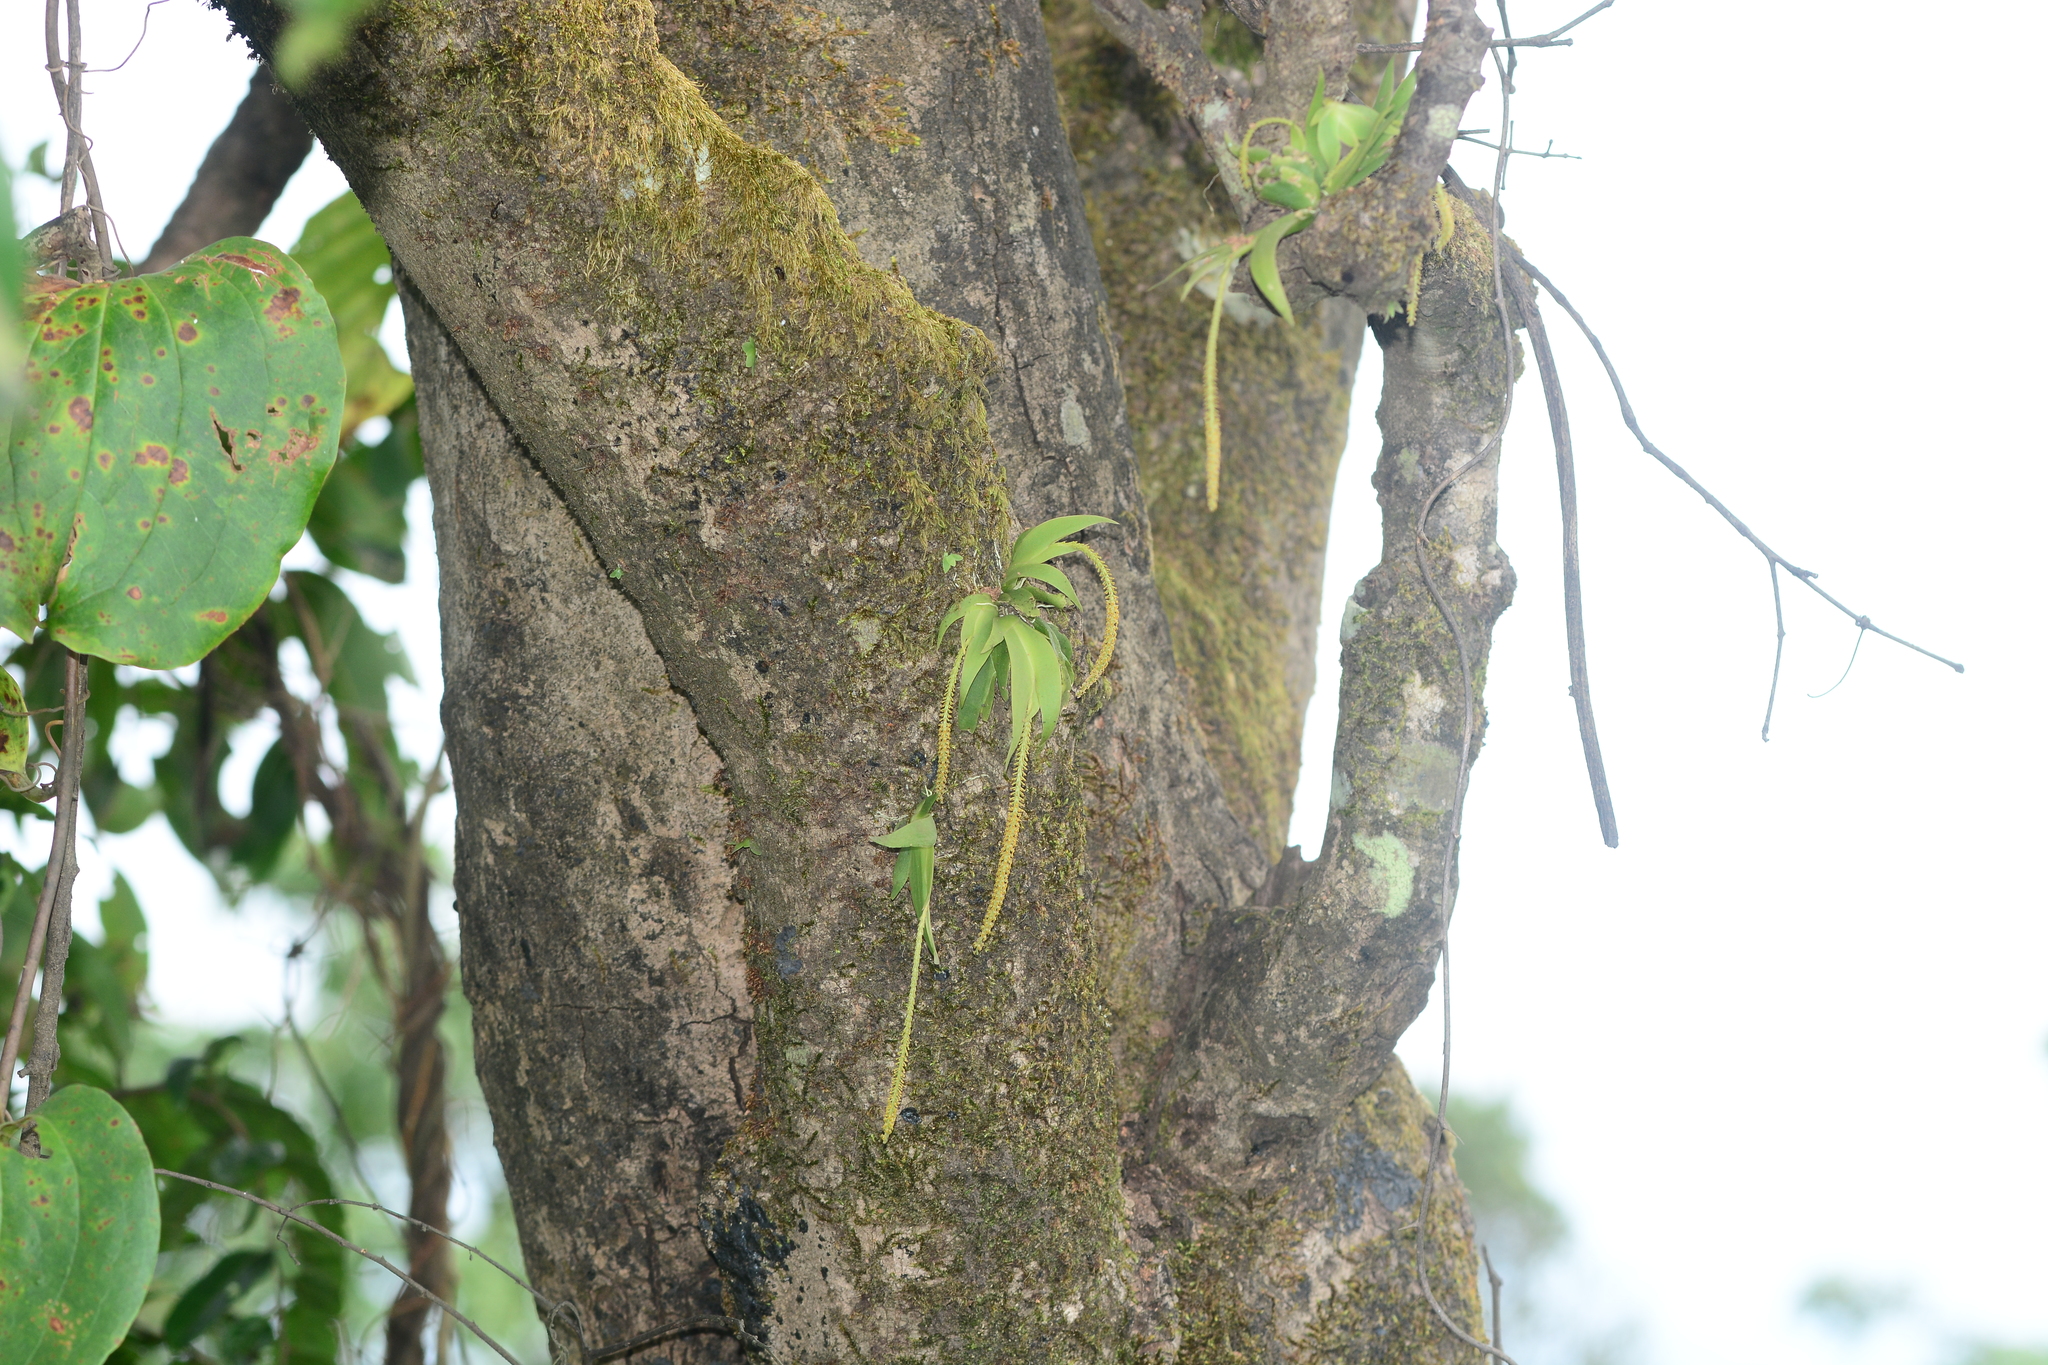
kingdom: Plantae
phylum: Tracheophyta
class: Liliopsida
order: Asparagales
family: Orchidaceae
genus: Oberonia
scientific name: Oberonia falconeri
